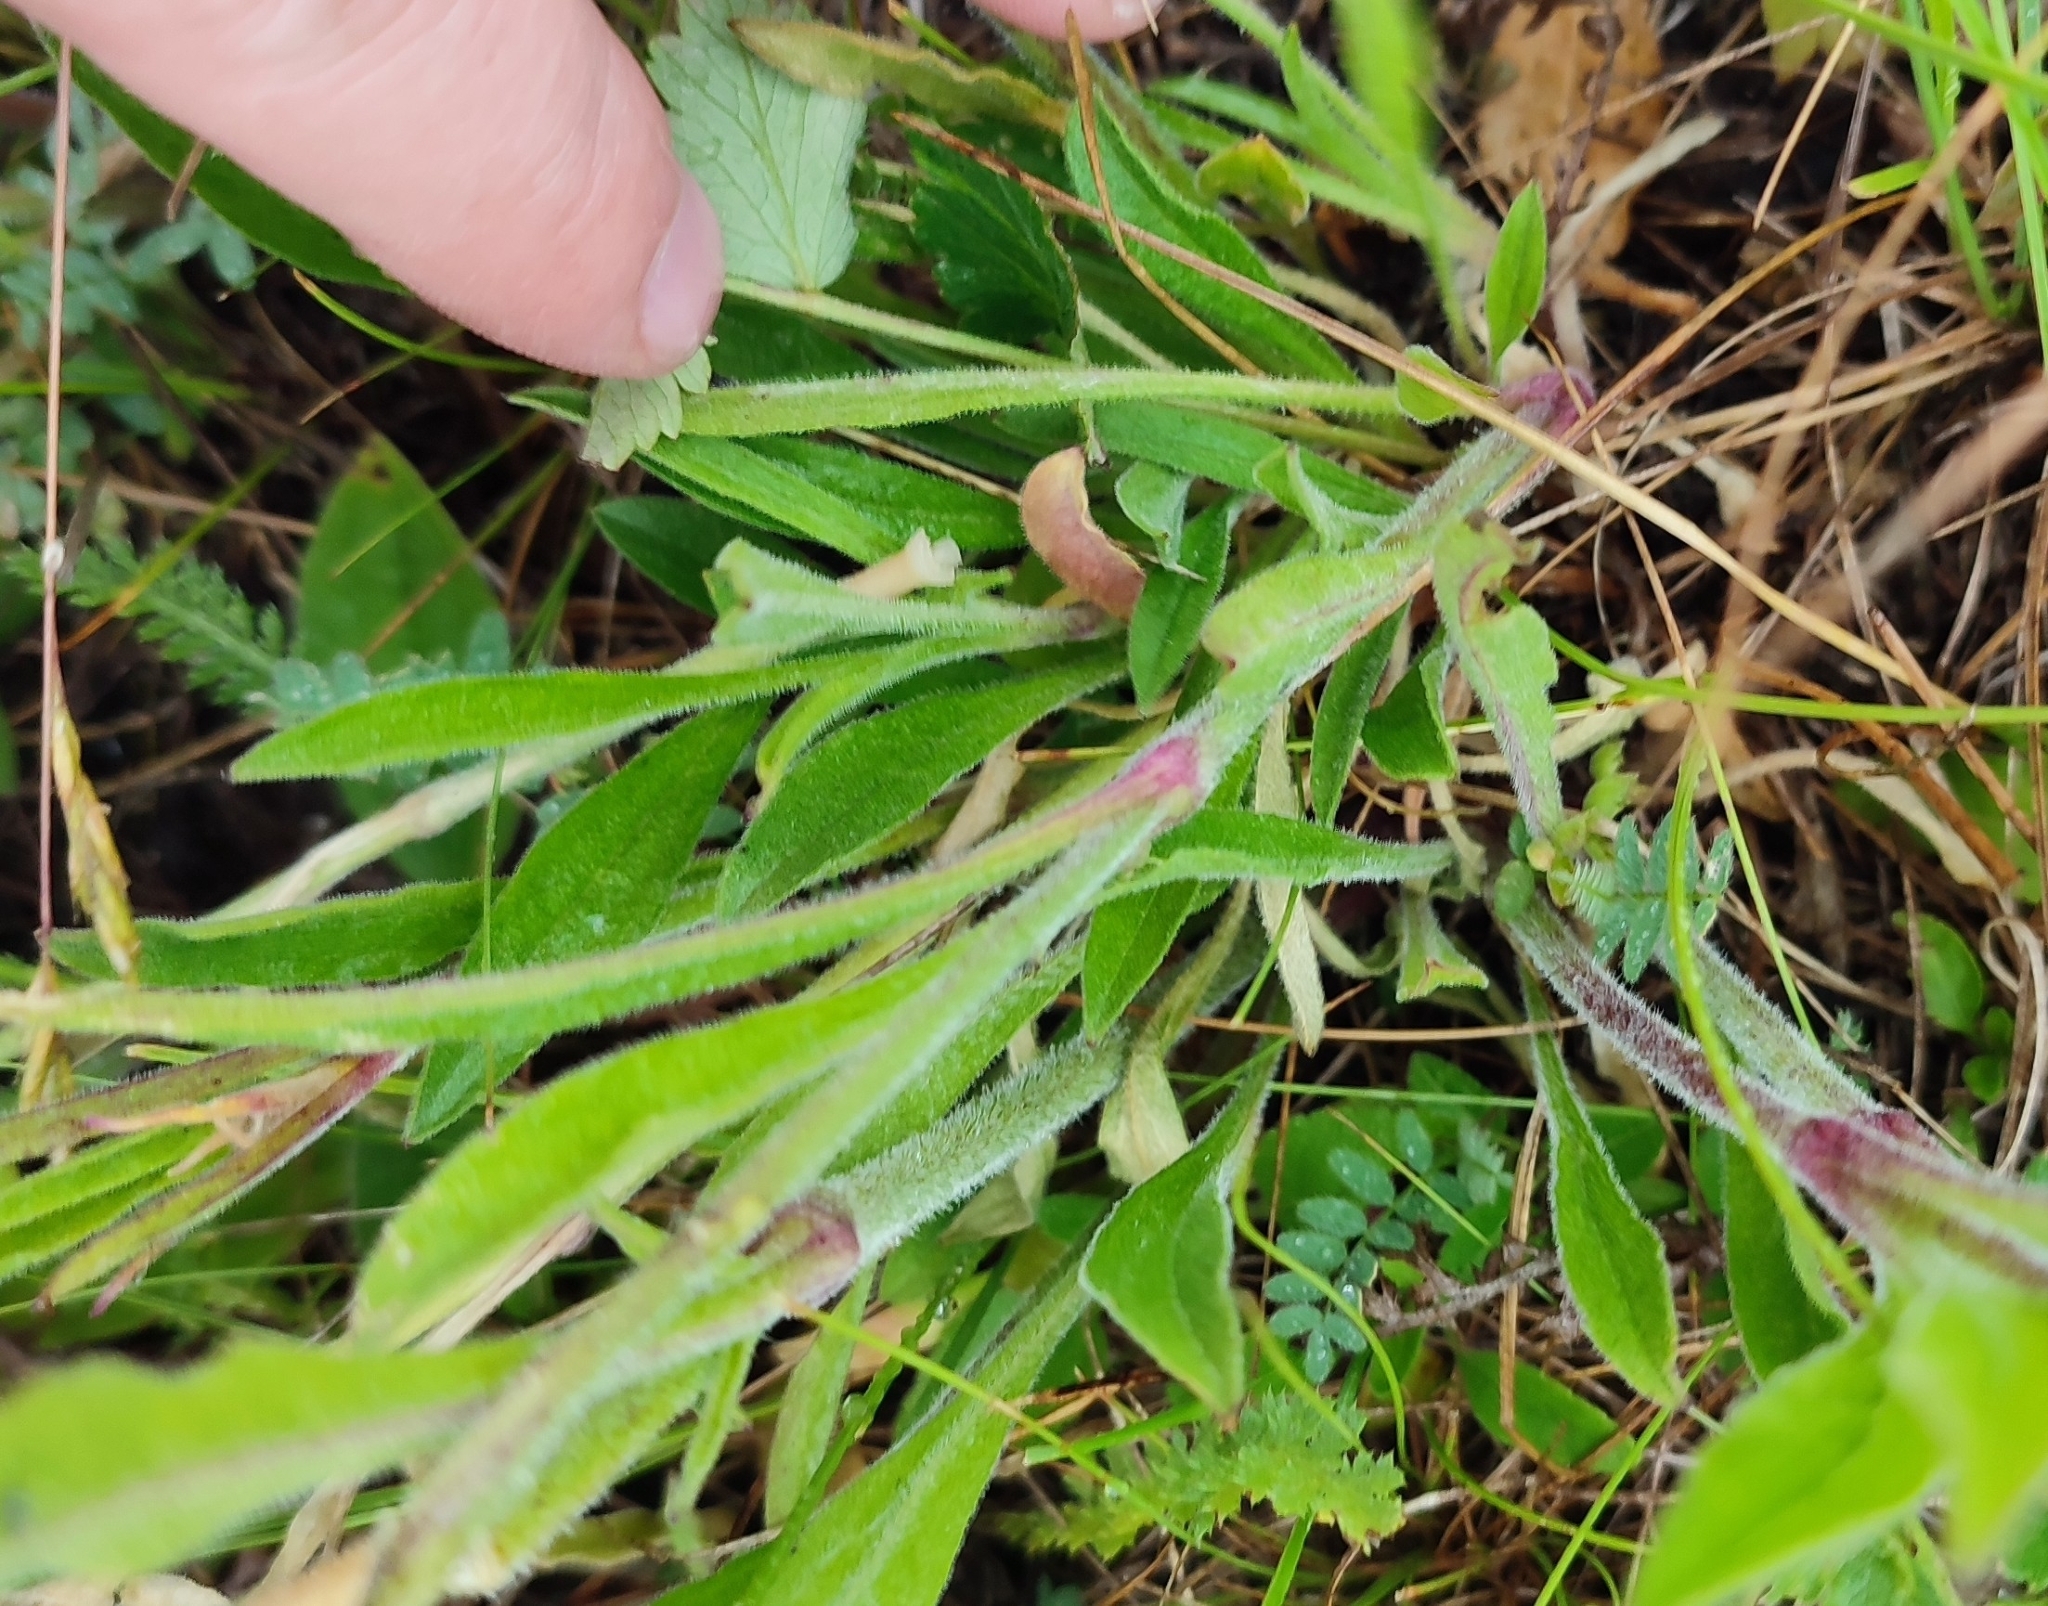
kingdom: Plantae
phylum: Tracheophyta
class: Magnoliopsida
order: Caryophyllales
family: Caryophyllaceae
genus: Silene
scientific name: Silene nutans
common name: Nottingham catchfly
